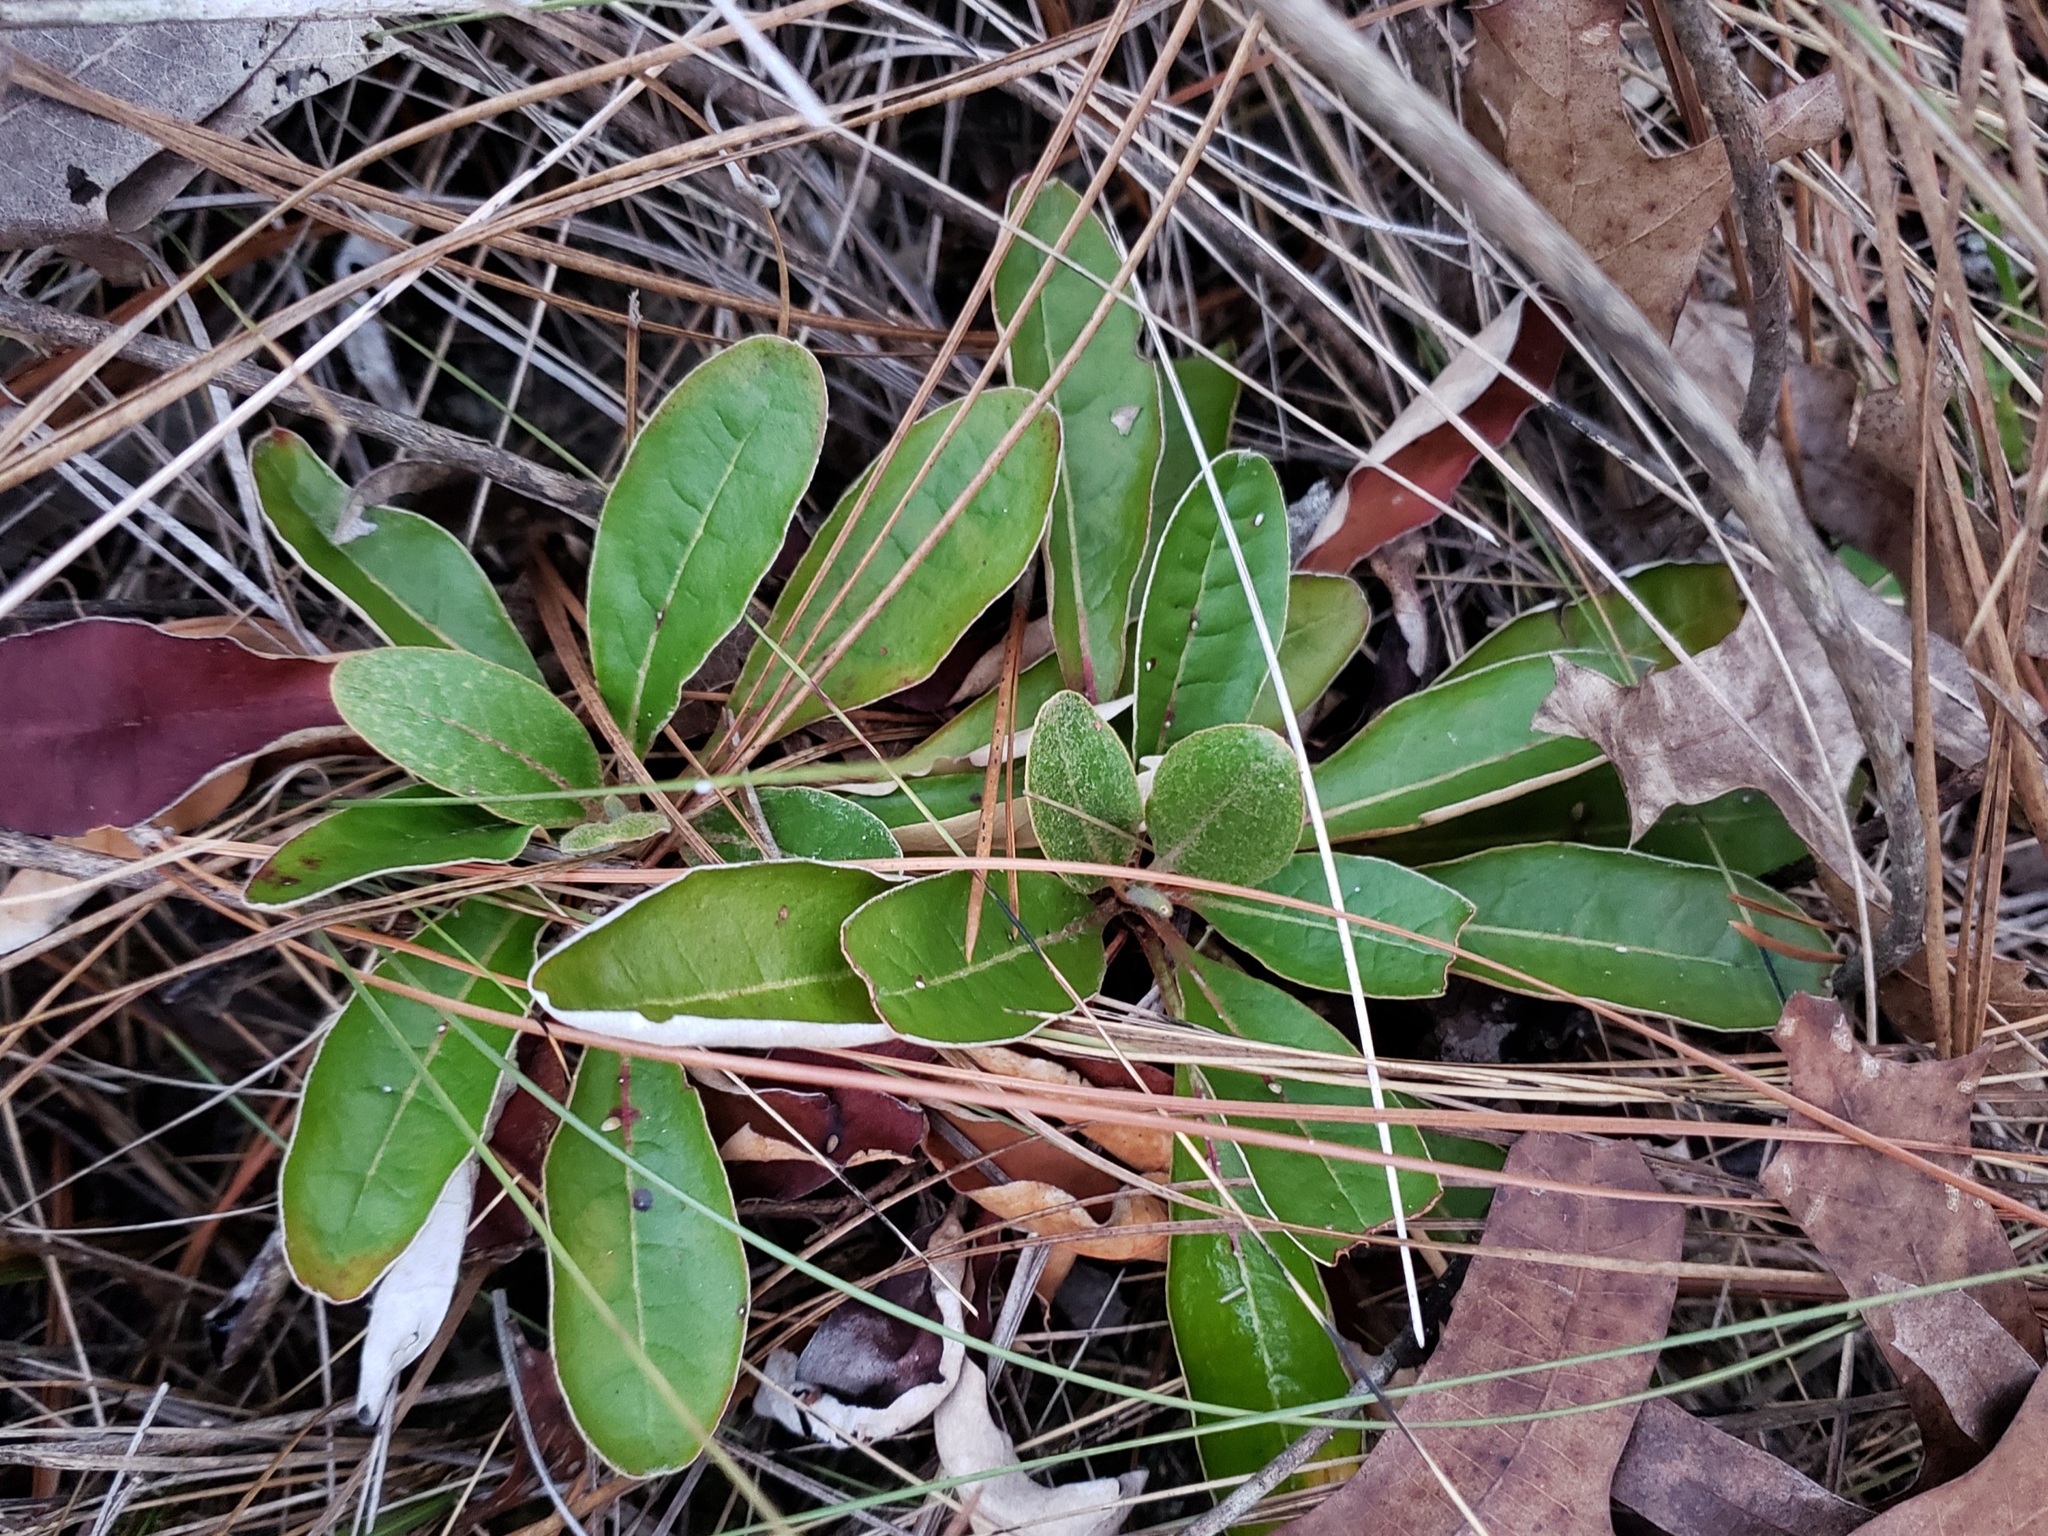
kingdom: Plantae
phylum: Tracheophyta
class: Magnoliopsida
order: Asterales
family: Asteraceae
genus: Chaptalia
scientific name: Chaptalia tomentosa
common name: Woolly sunbonnet
